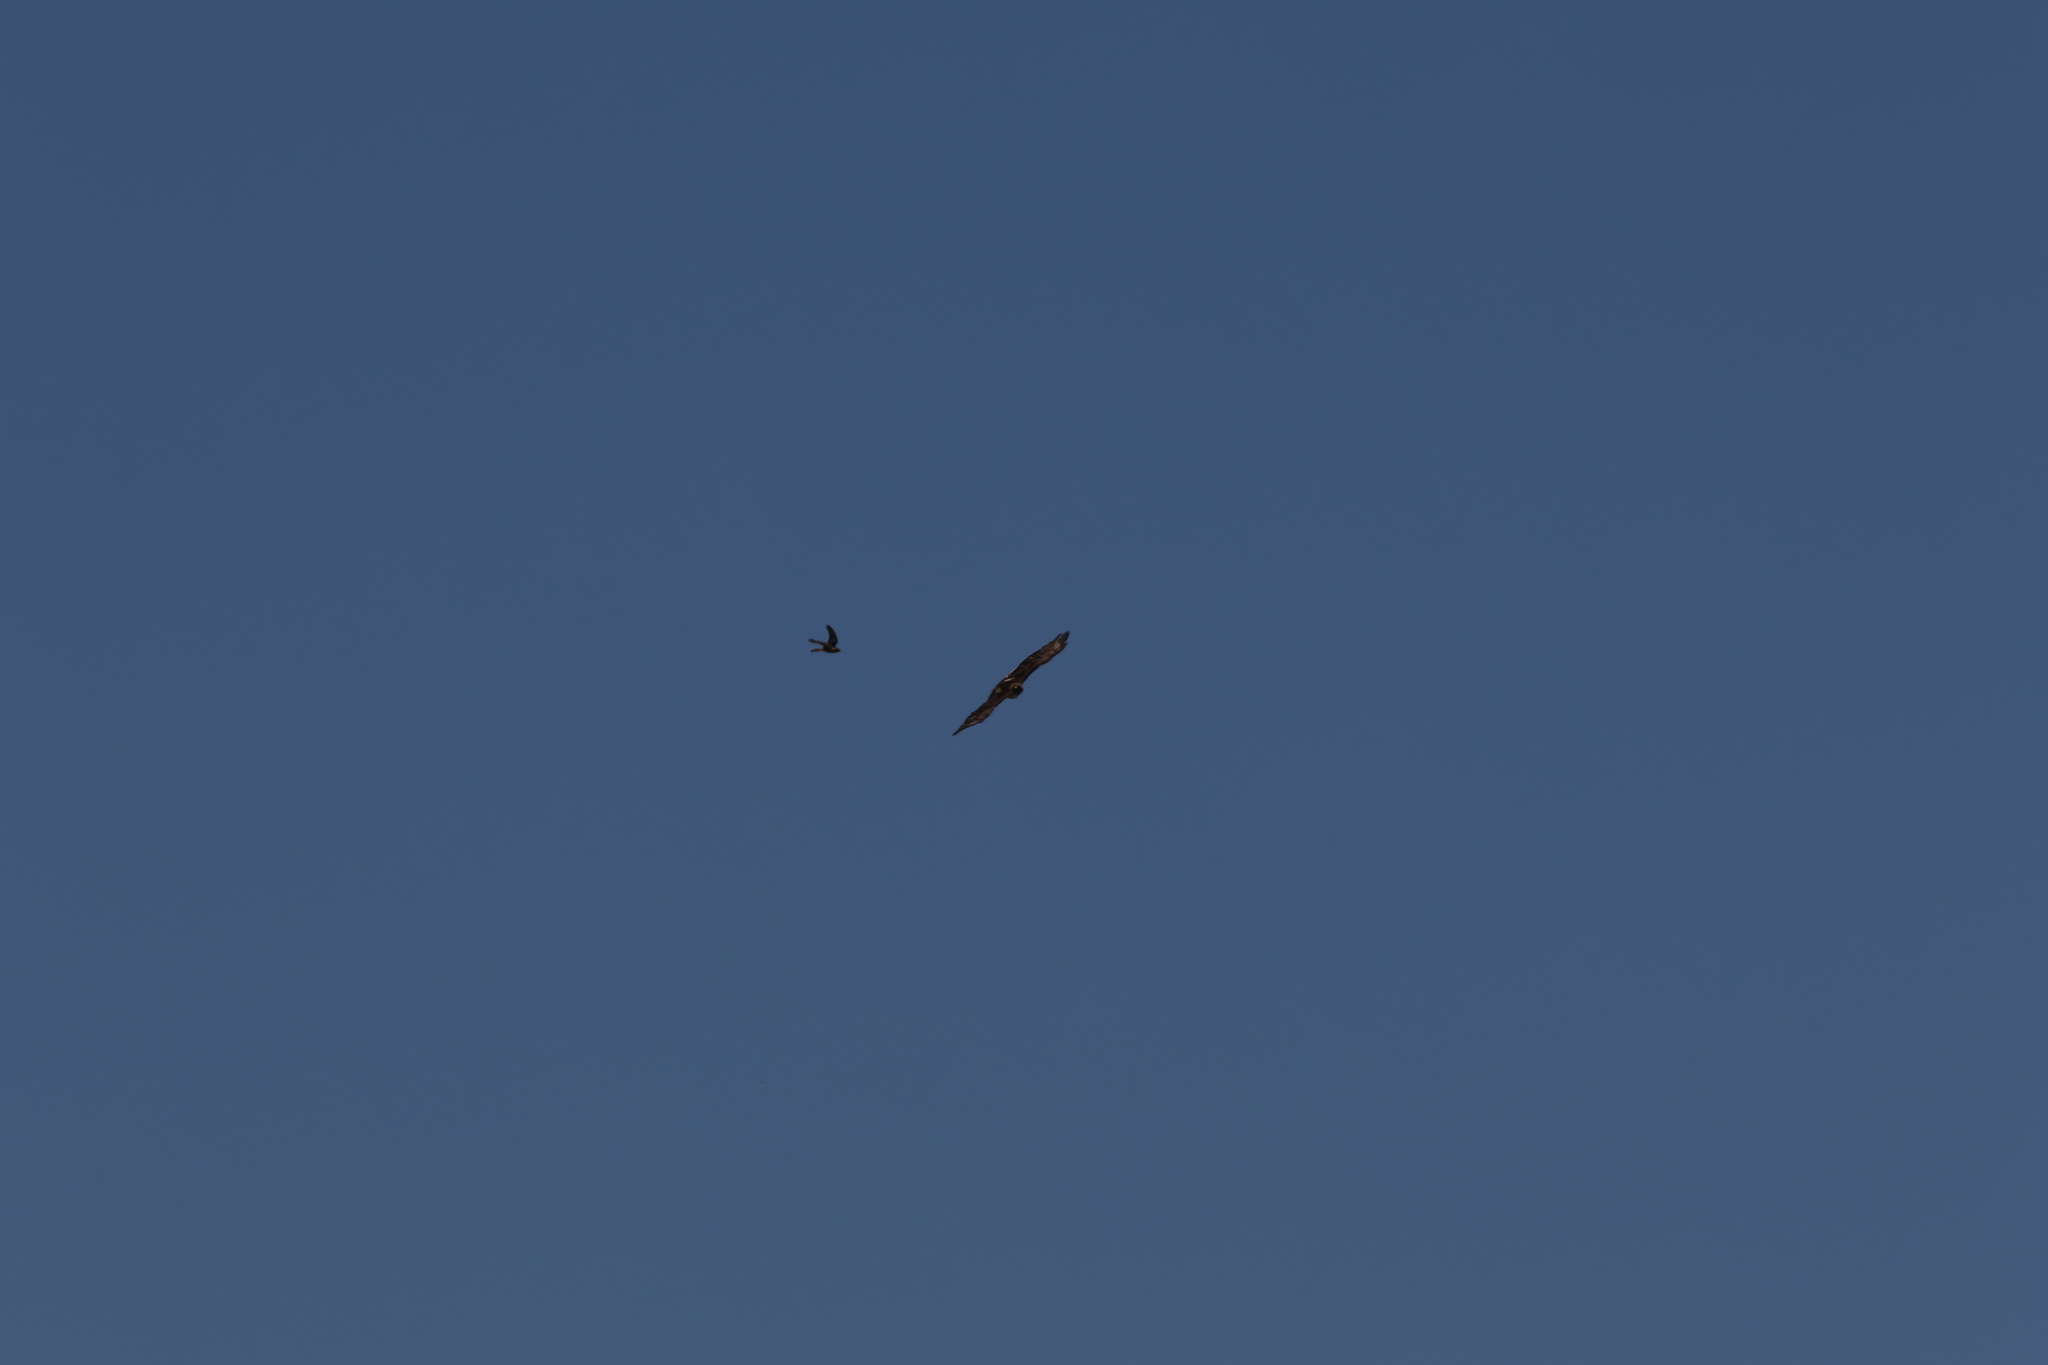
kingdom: Animalia
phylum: Chordata
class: Aves
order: Falconiformes
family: Falconidae
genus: Falco
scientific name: Falco sparverius
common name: American kestrel
